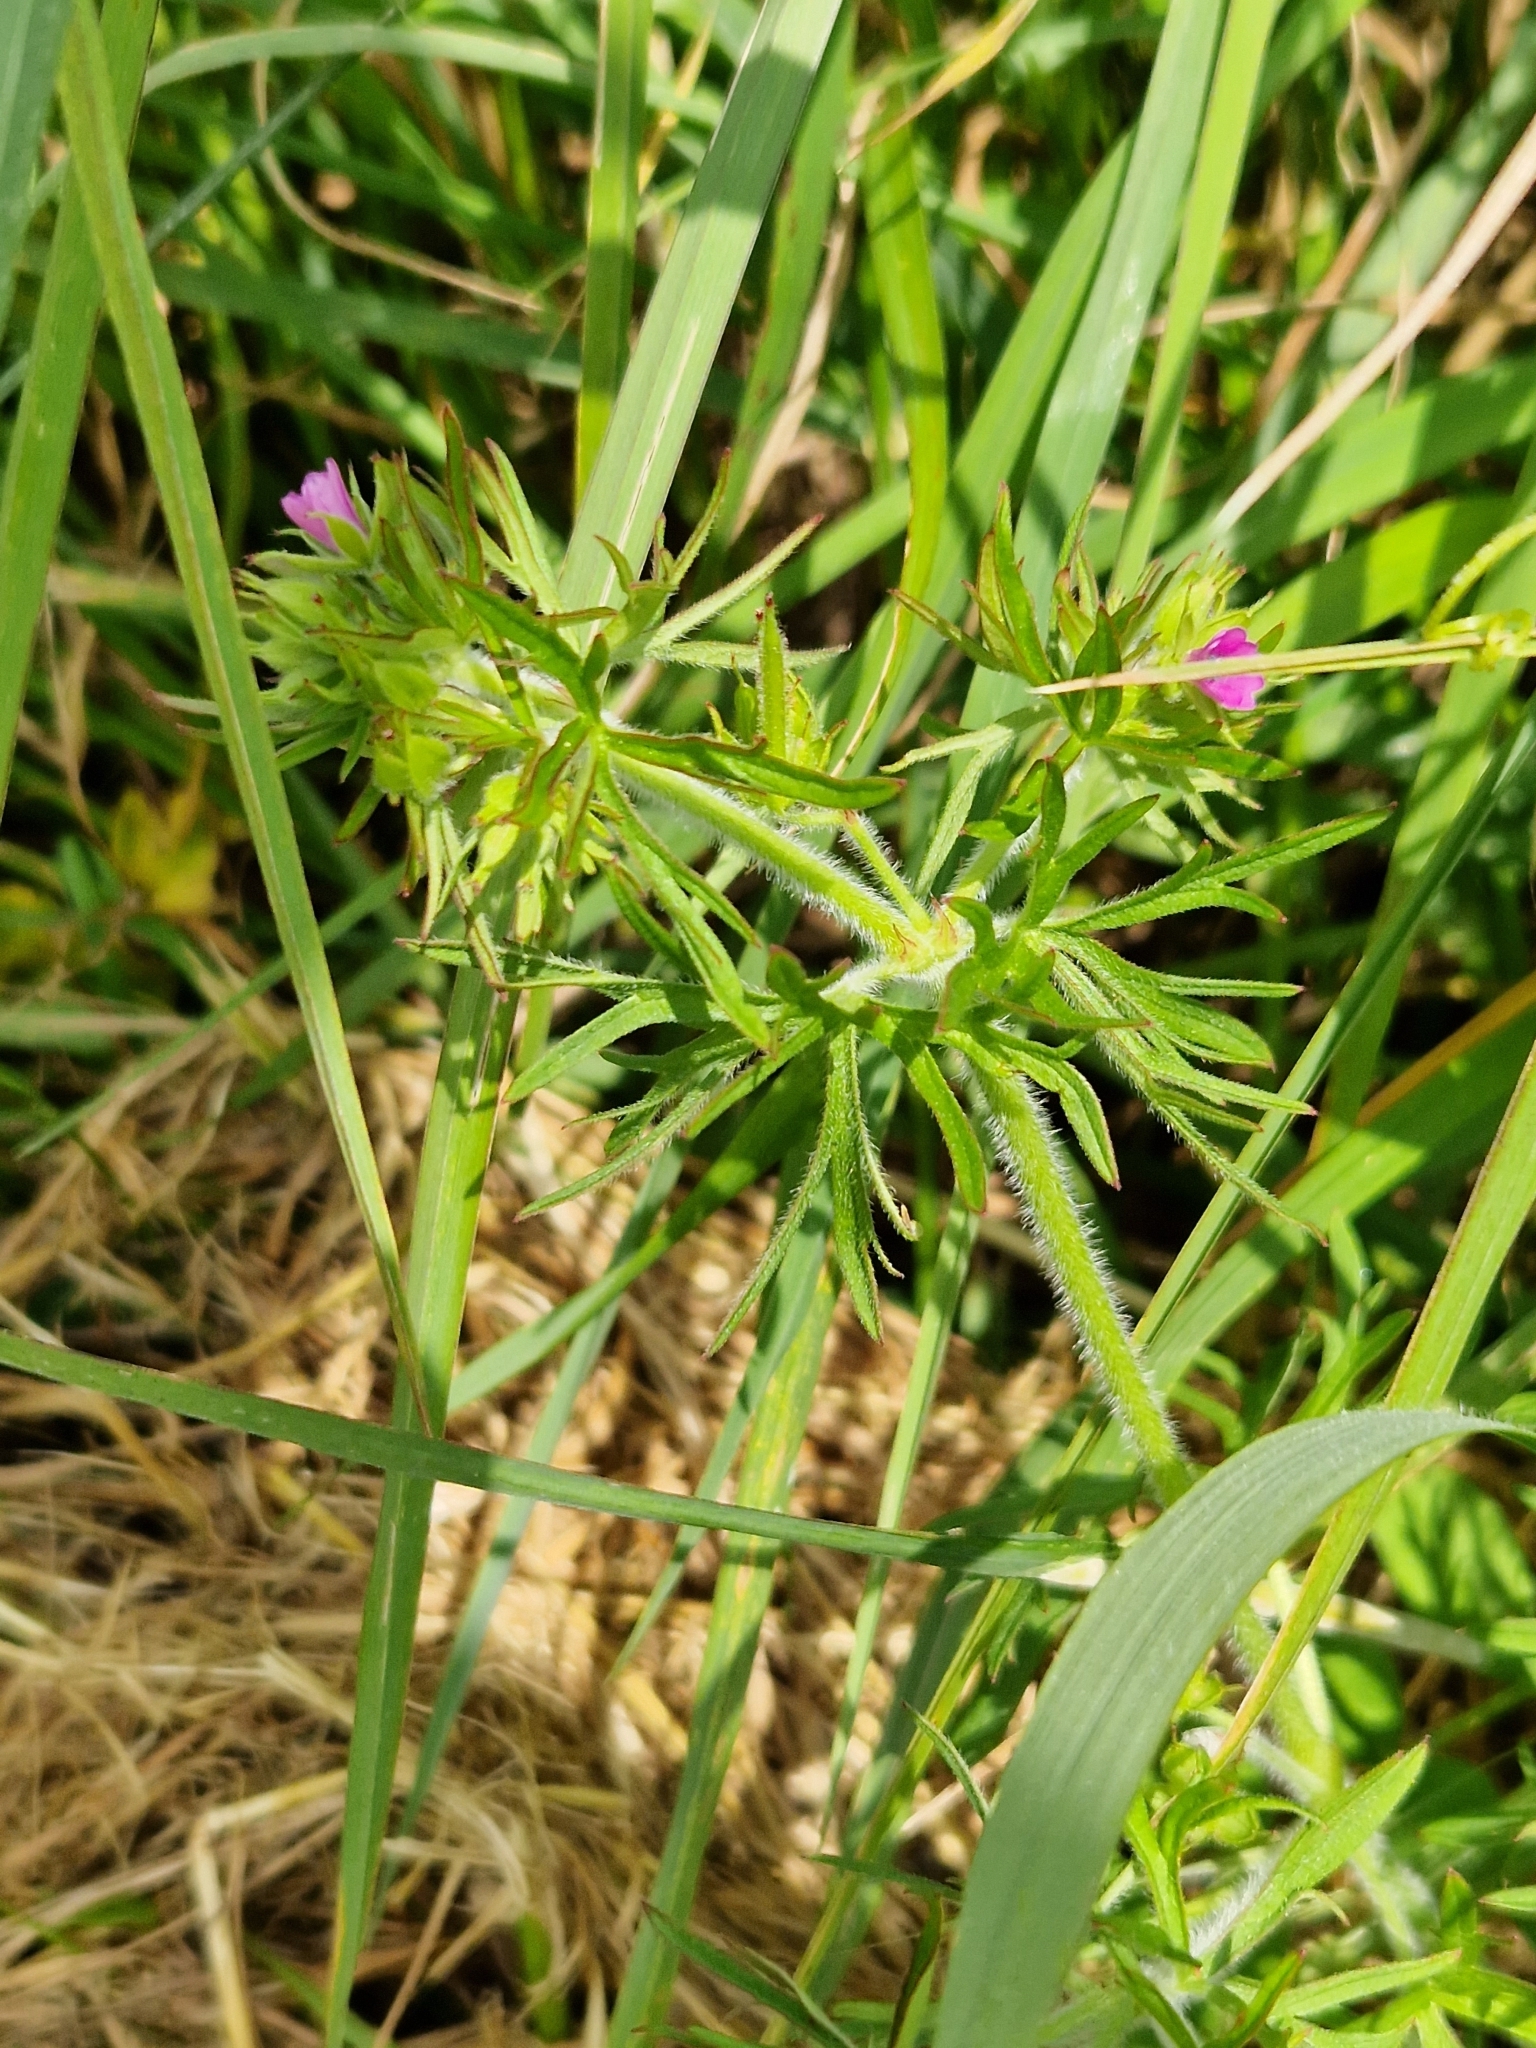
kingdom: Plantae
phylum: Tracheophyta
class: Magnoliopsida
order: Geraniales
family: Geraniaceae
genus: Geranium
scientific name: Geranium dissectum
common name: Cut-leaved crane's-bill
